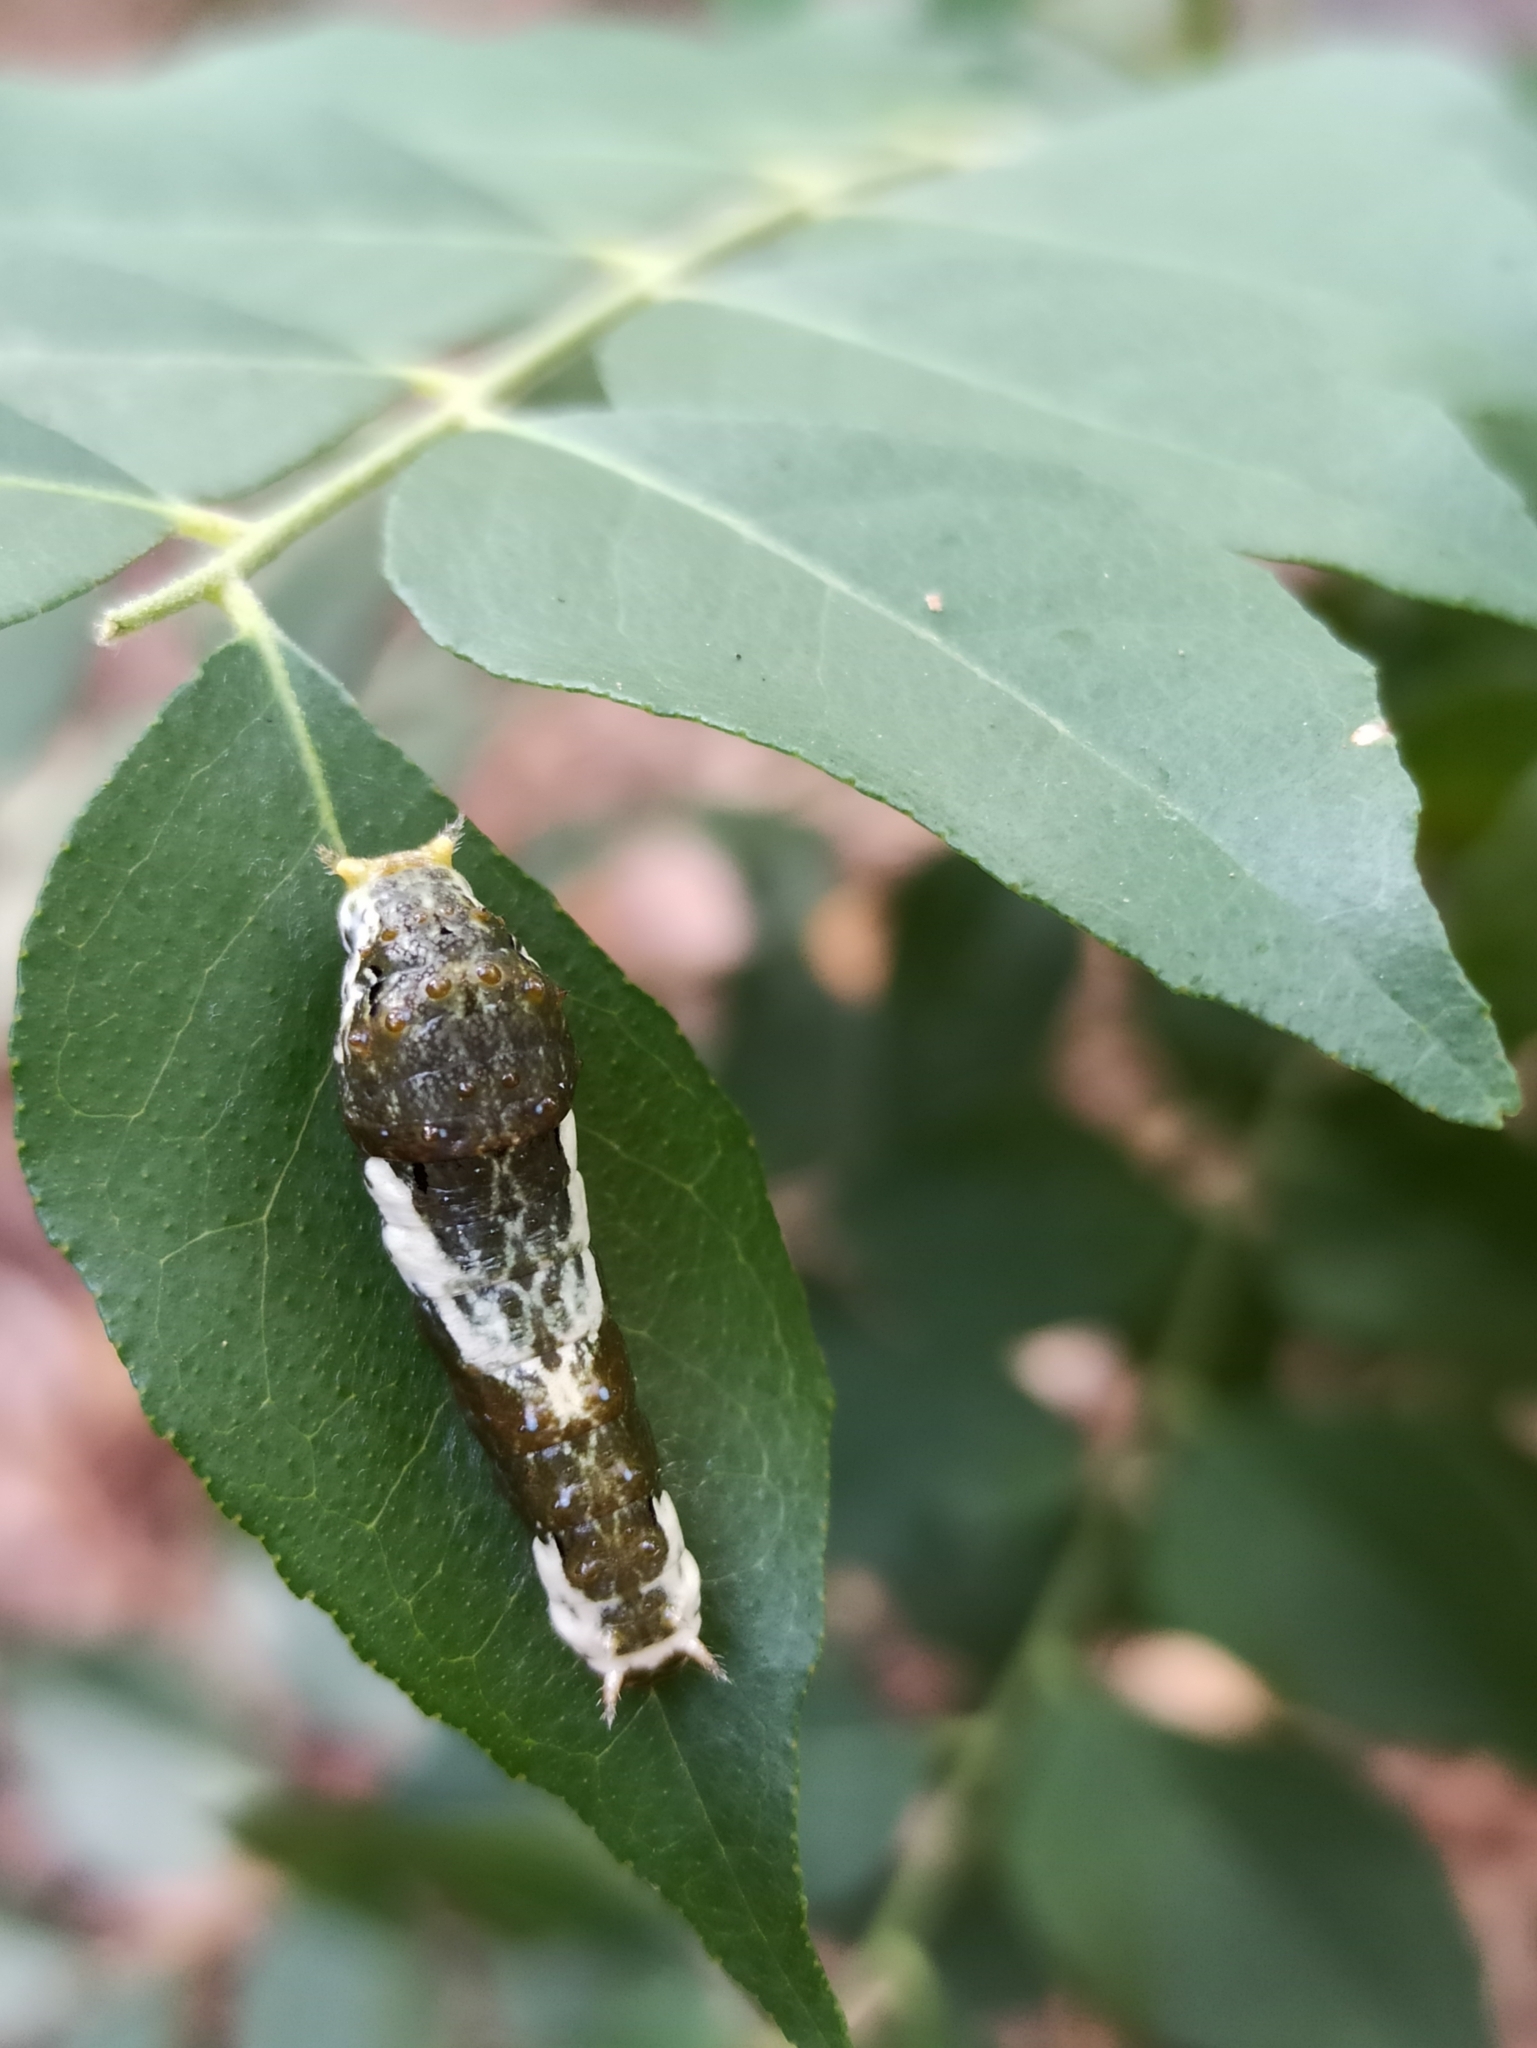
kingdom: Animalia
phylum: Arthropoda
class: Insecta
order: Lepidoptera
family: Papilionidae
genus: Papilio
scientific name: Papilio polytes
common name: Common mormon
